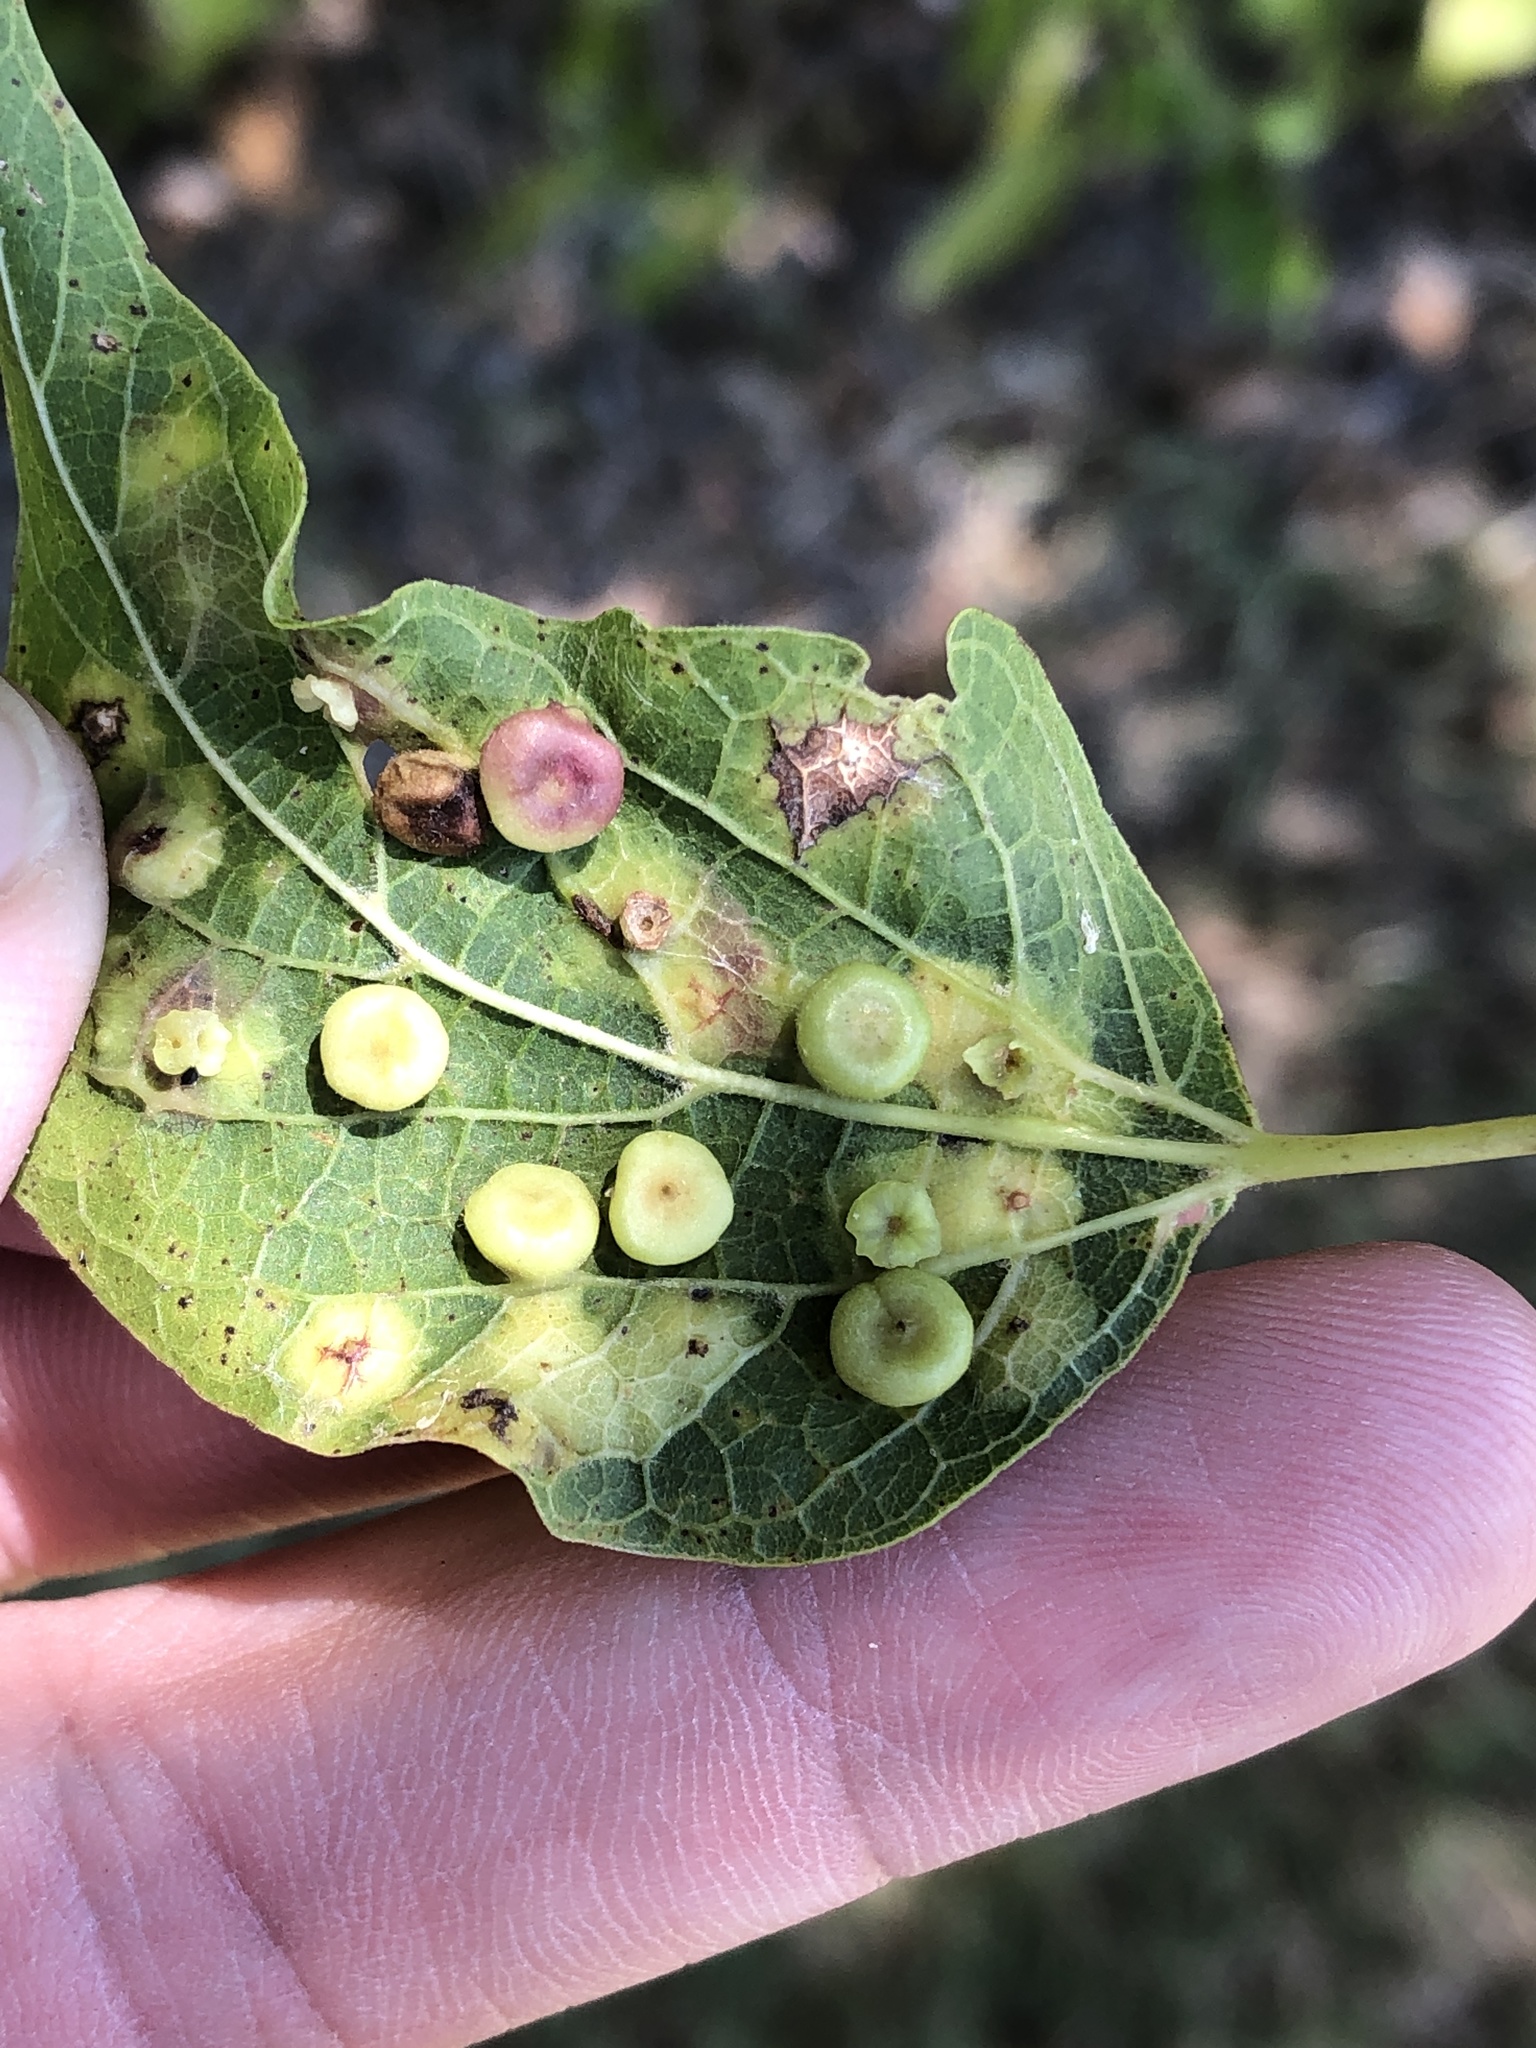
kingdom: Animalia
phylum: Arthropoda
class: Insecta
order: Hemiptera
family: Aphalaridae
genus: Pachypsylla
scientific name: Pachypsylla celtidismamma
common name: Hackberry nipplegall psyllid
